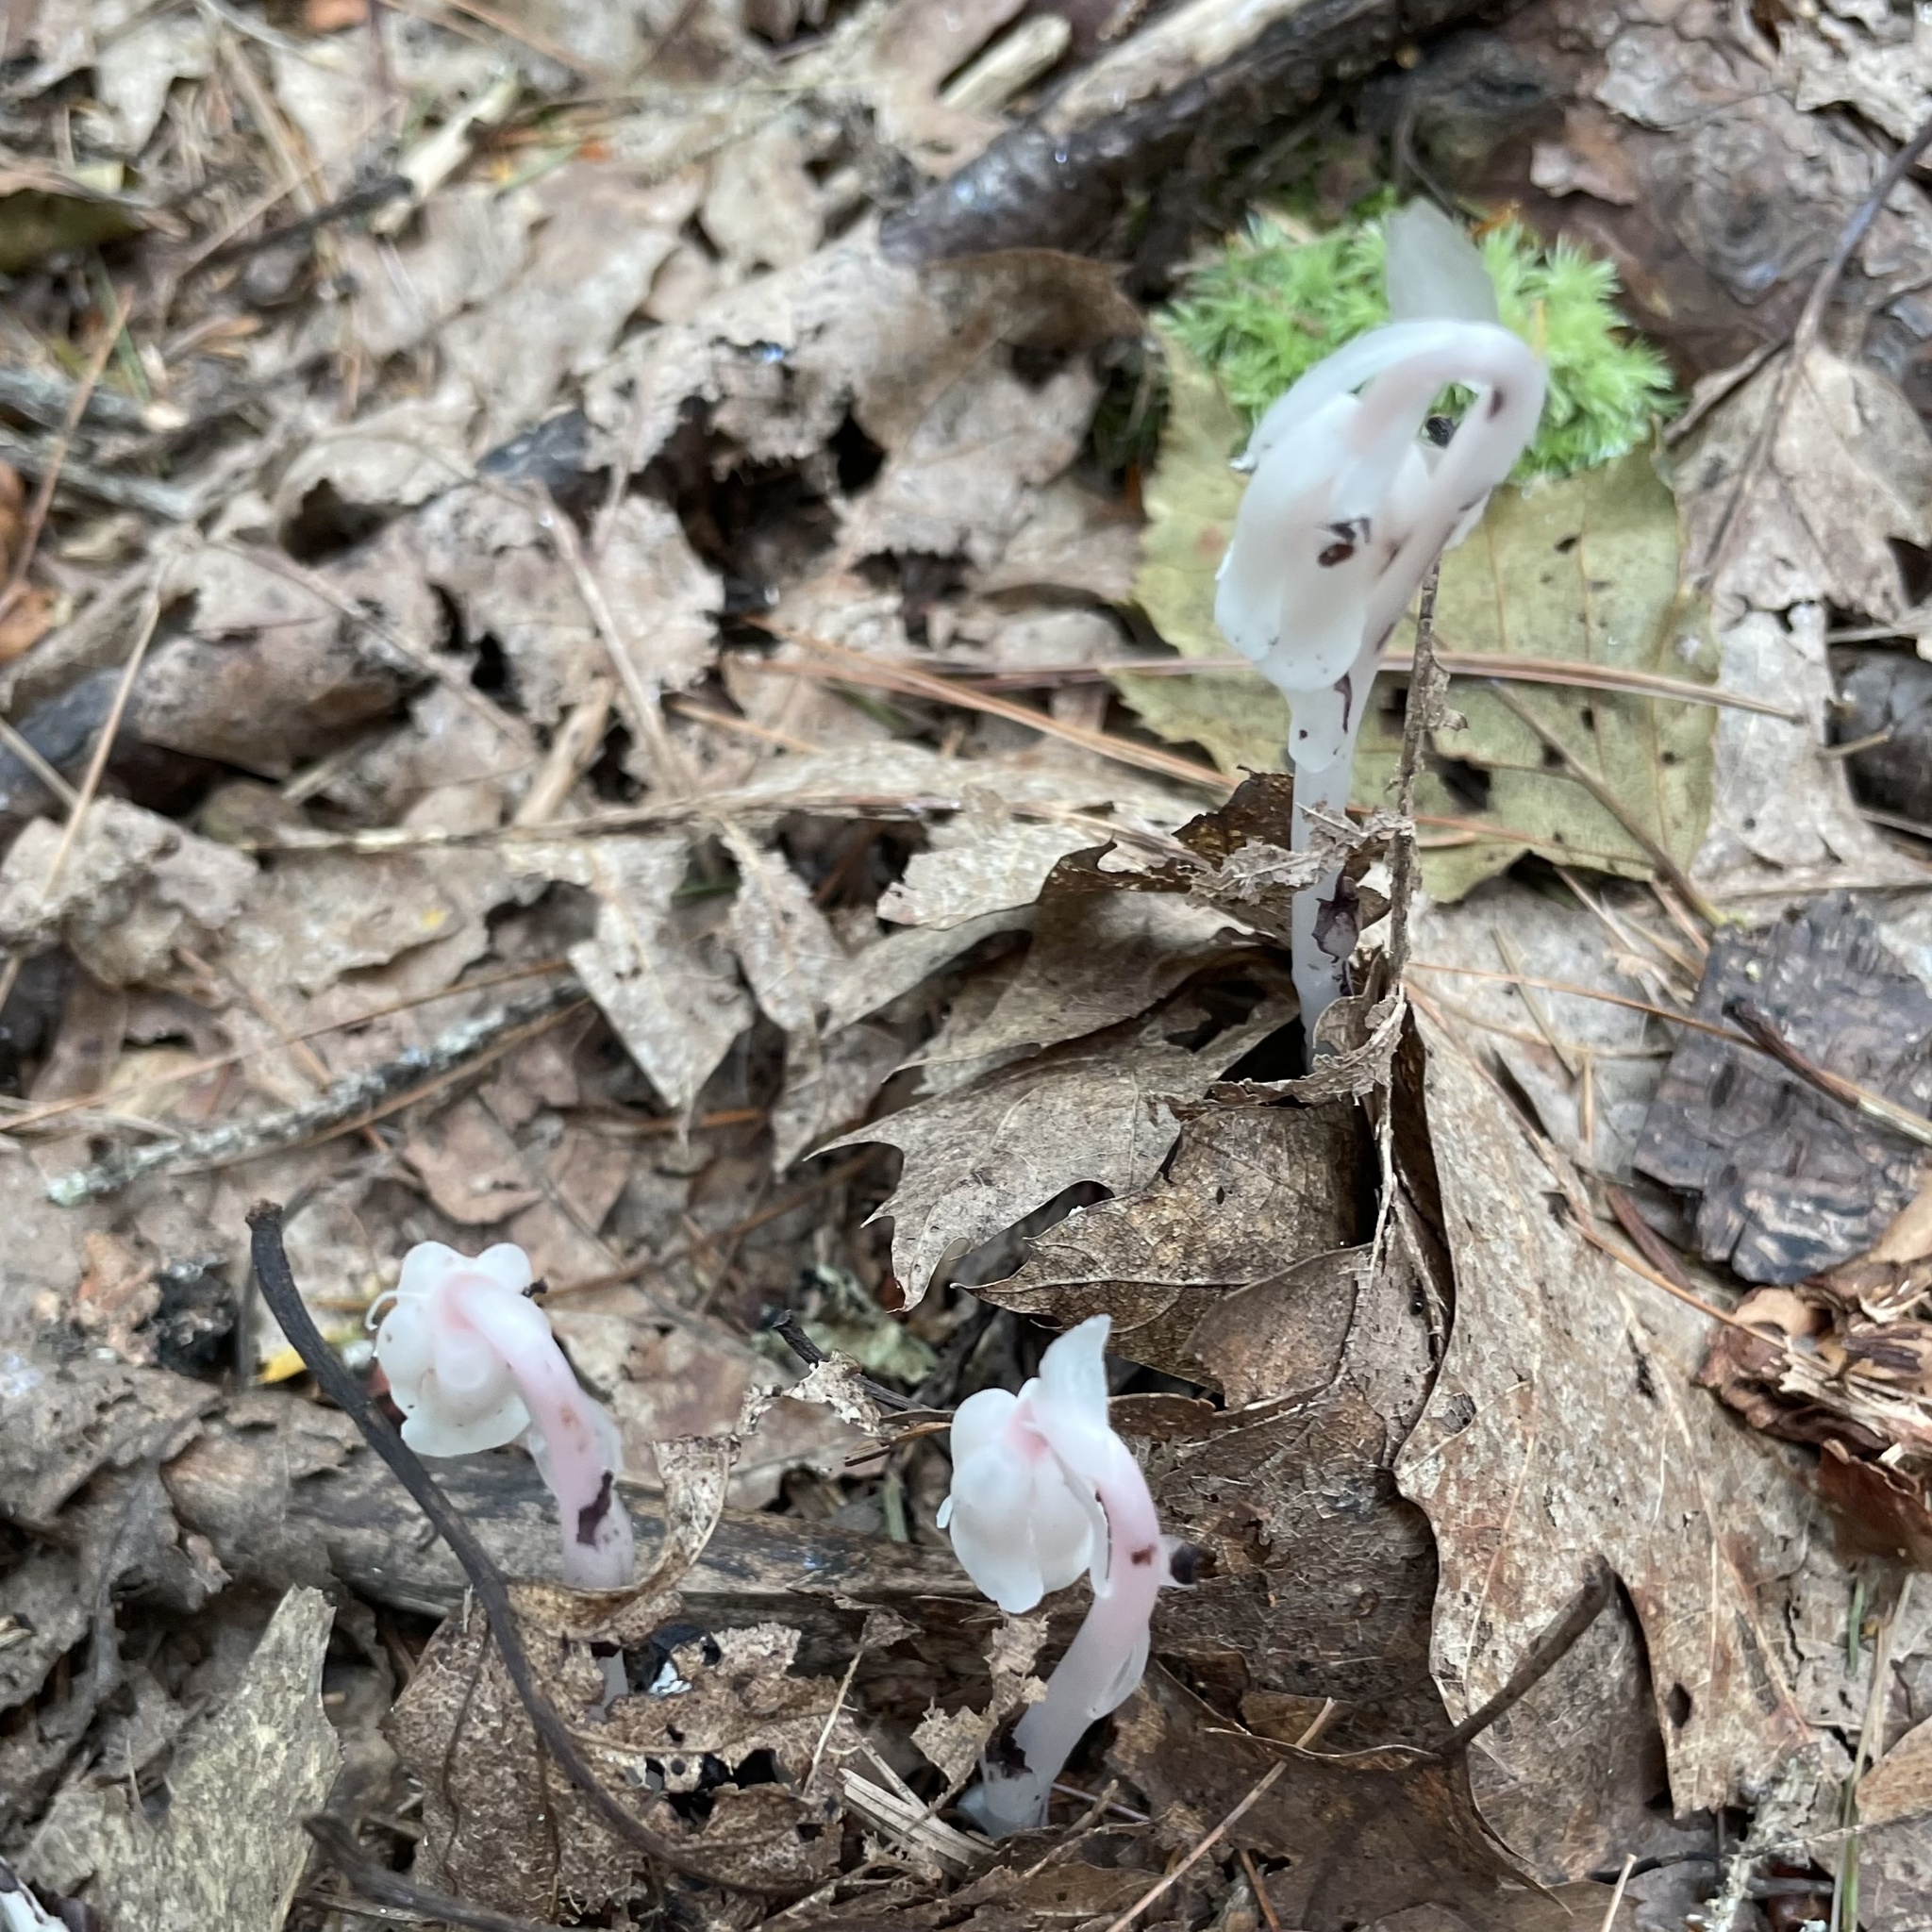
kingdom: Plantae
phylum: Tracheophyta
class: Magnoliopsida
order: Ericales
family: Ericaceae
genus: Monotropa
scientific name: Monotropa uniflora
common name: Convulsion root
